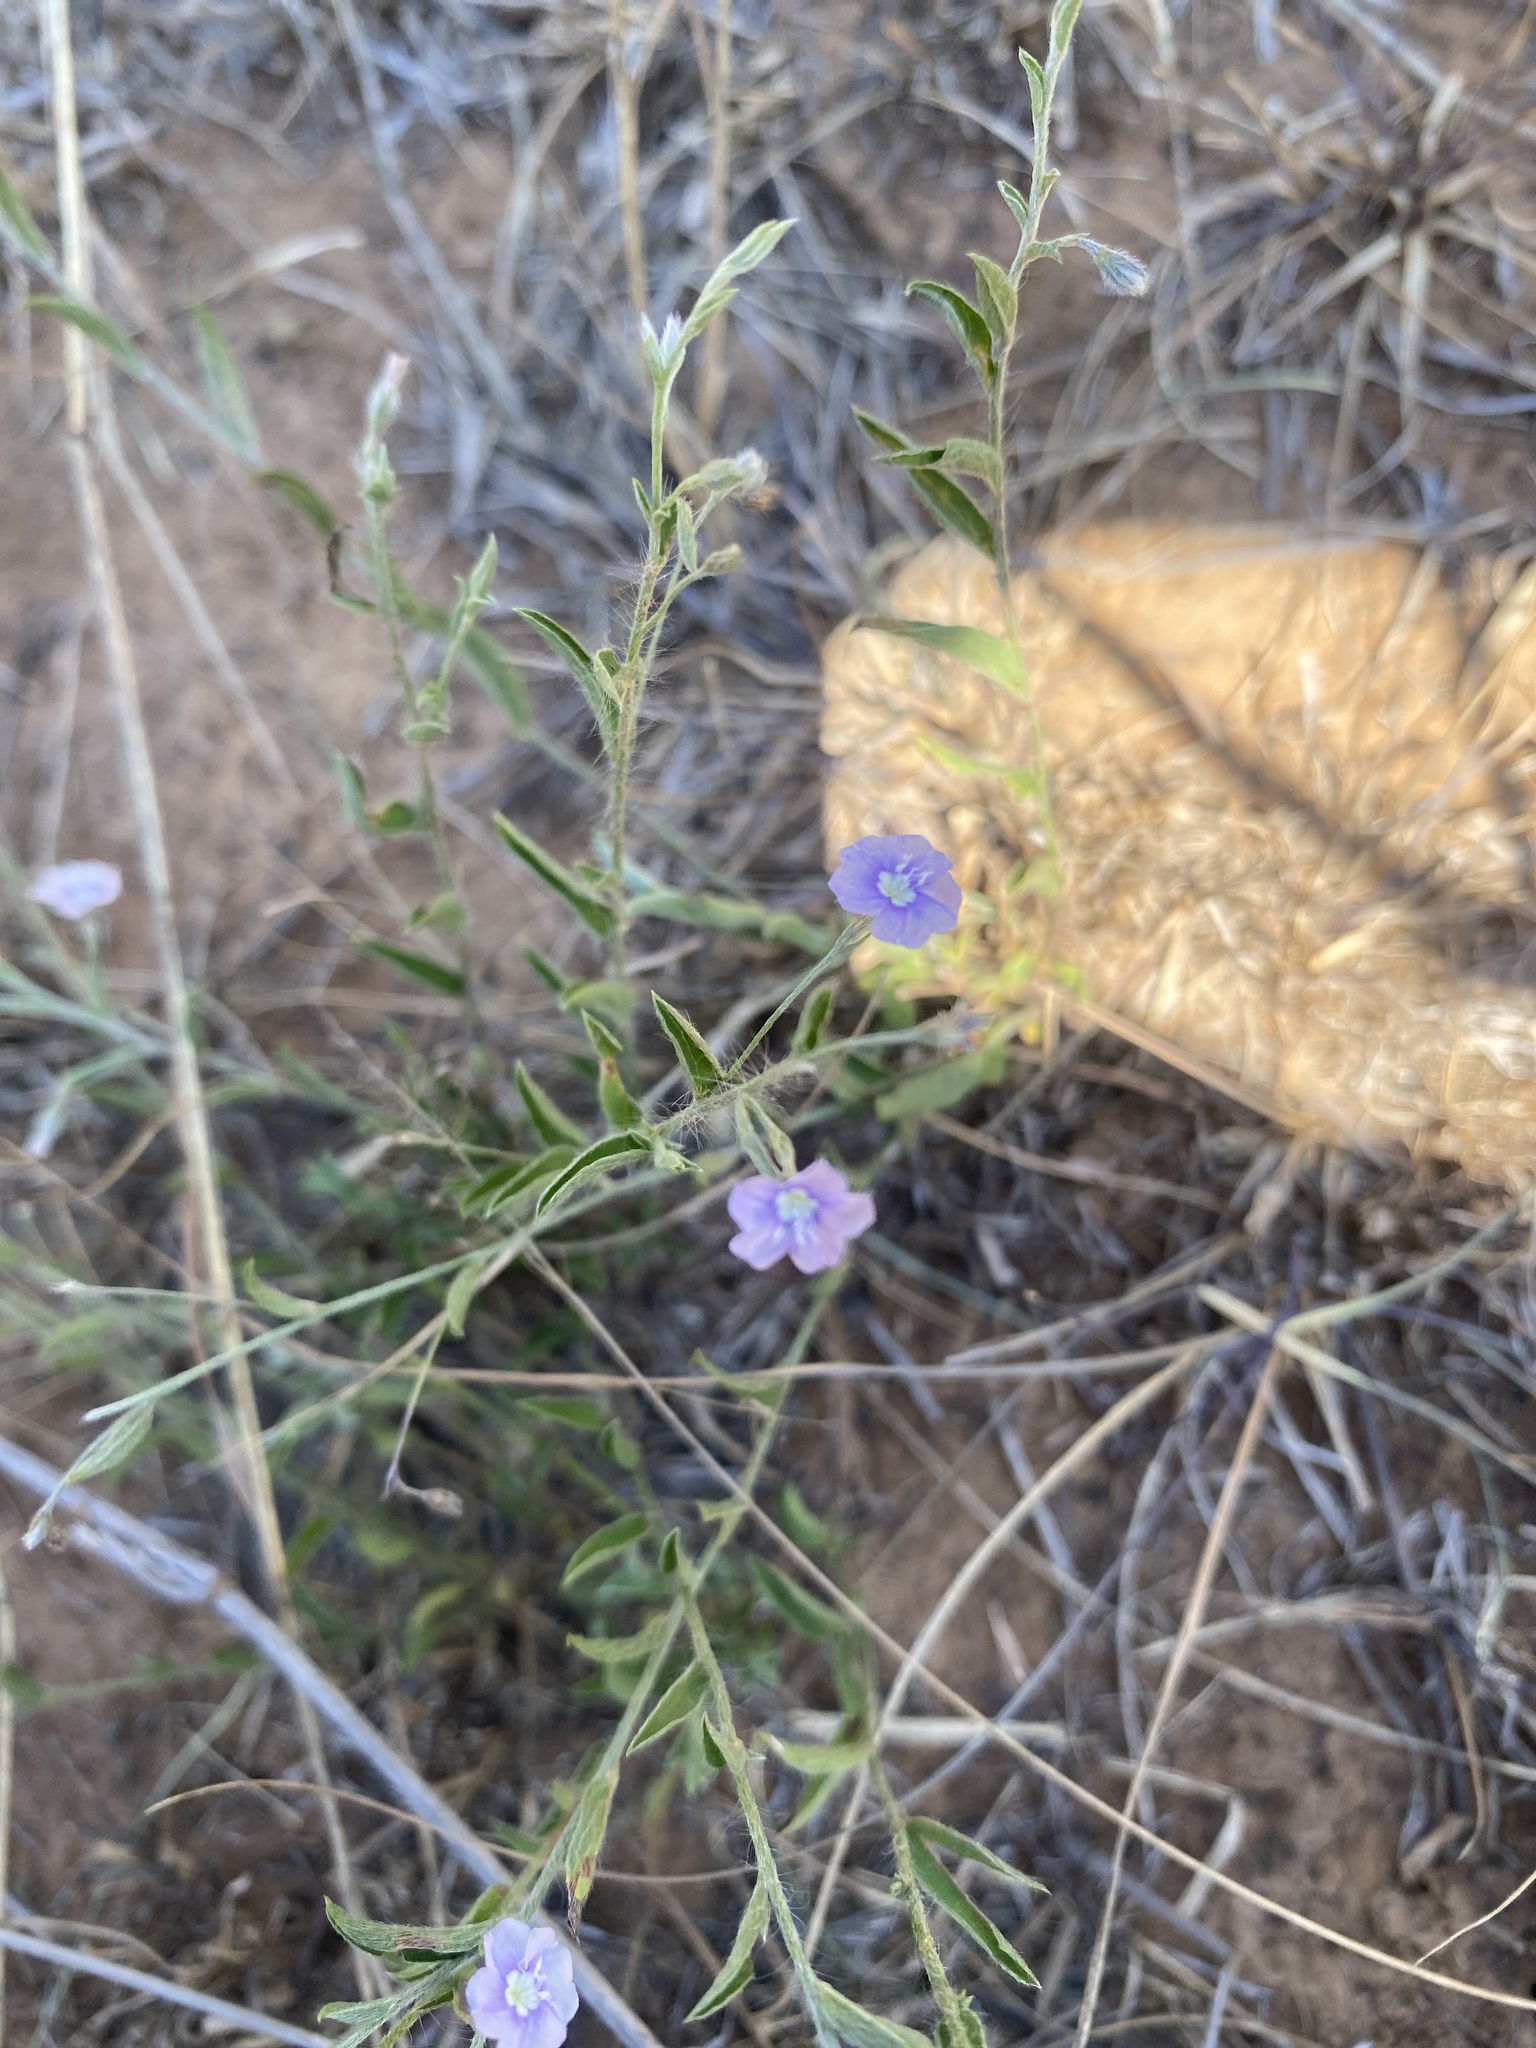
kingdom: Plantae
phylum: Tracheophyta
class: Magnoliopsida
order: Solanales
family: Convolvulaceae
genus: Evolvulus
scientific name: Evolvulus alsinoides
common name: Slender dwarf morning-glory
